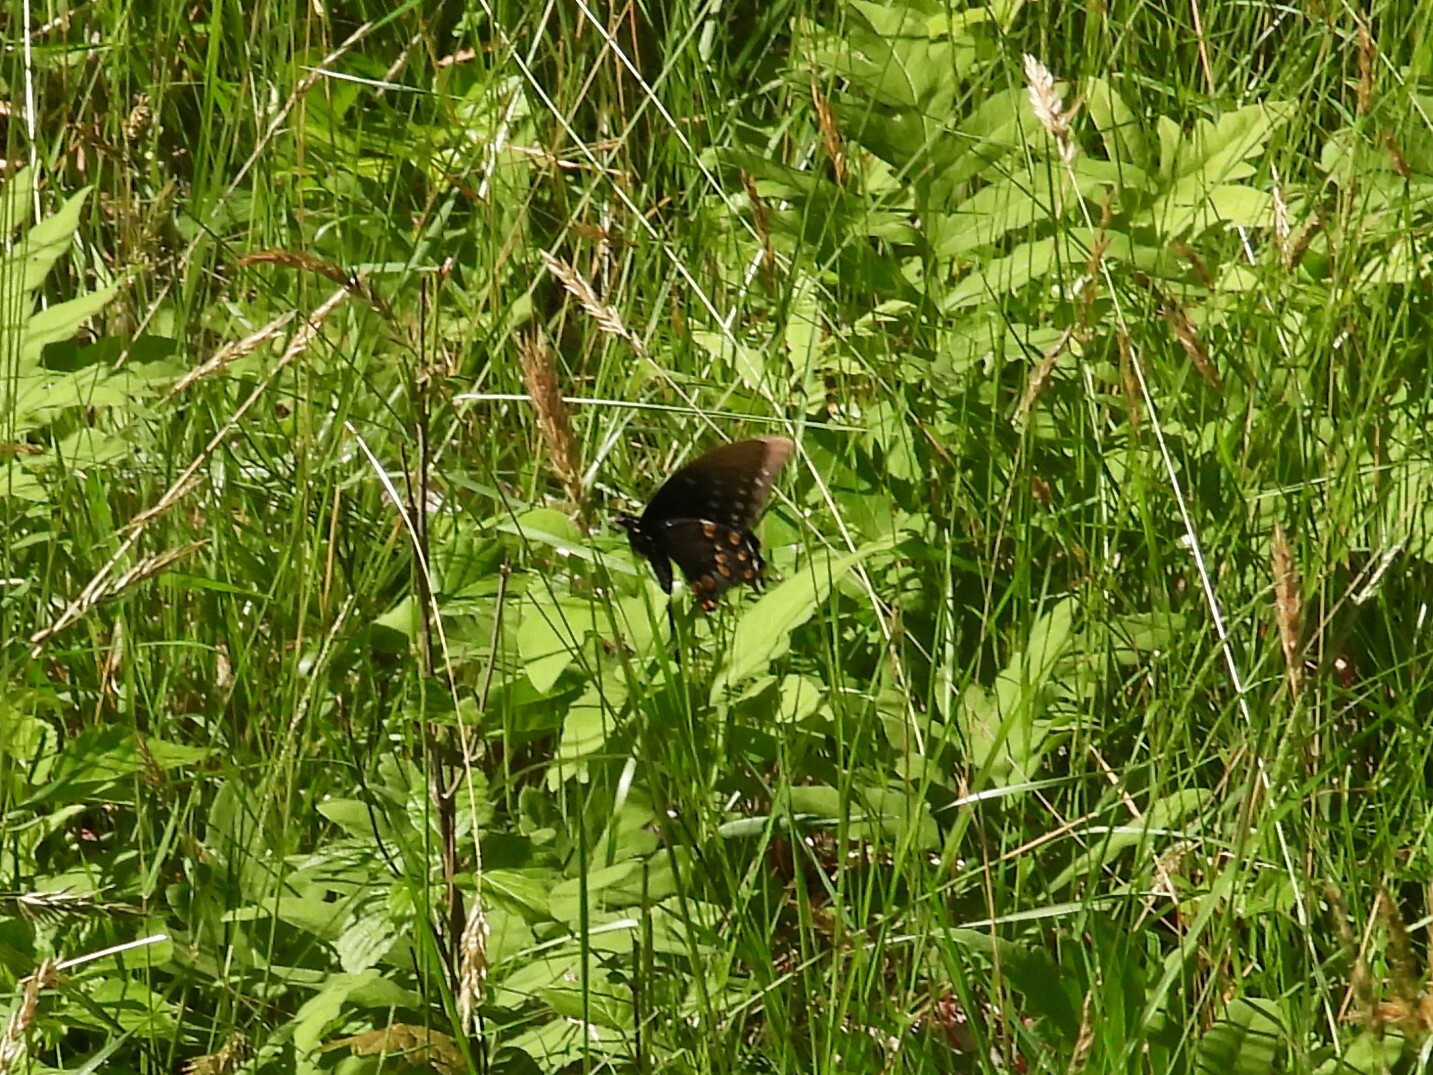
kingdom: Animalia
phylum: Arthropoda
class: Insecta
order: Lepidoptera
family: Papilionidae
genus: Papilio
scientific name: Papilio troilus
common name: Spicebush swallowtail
